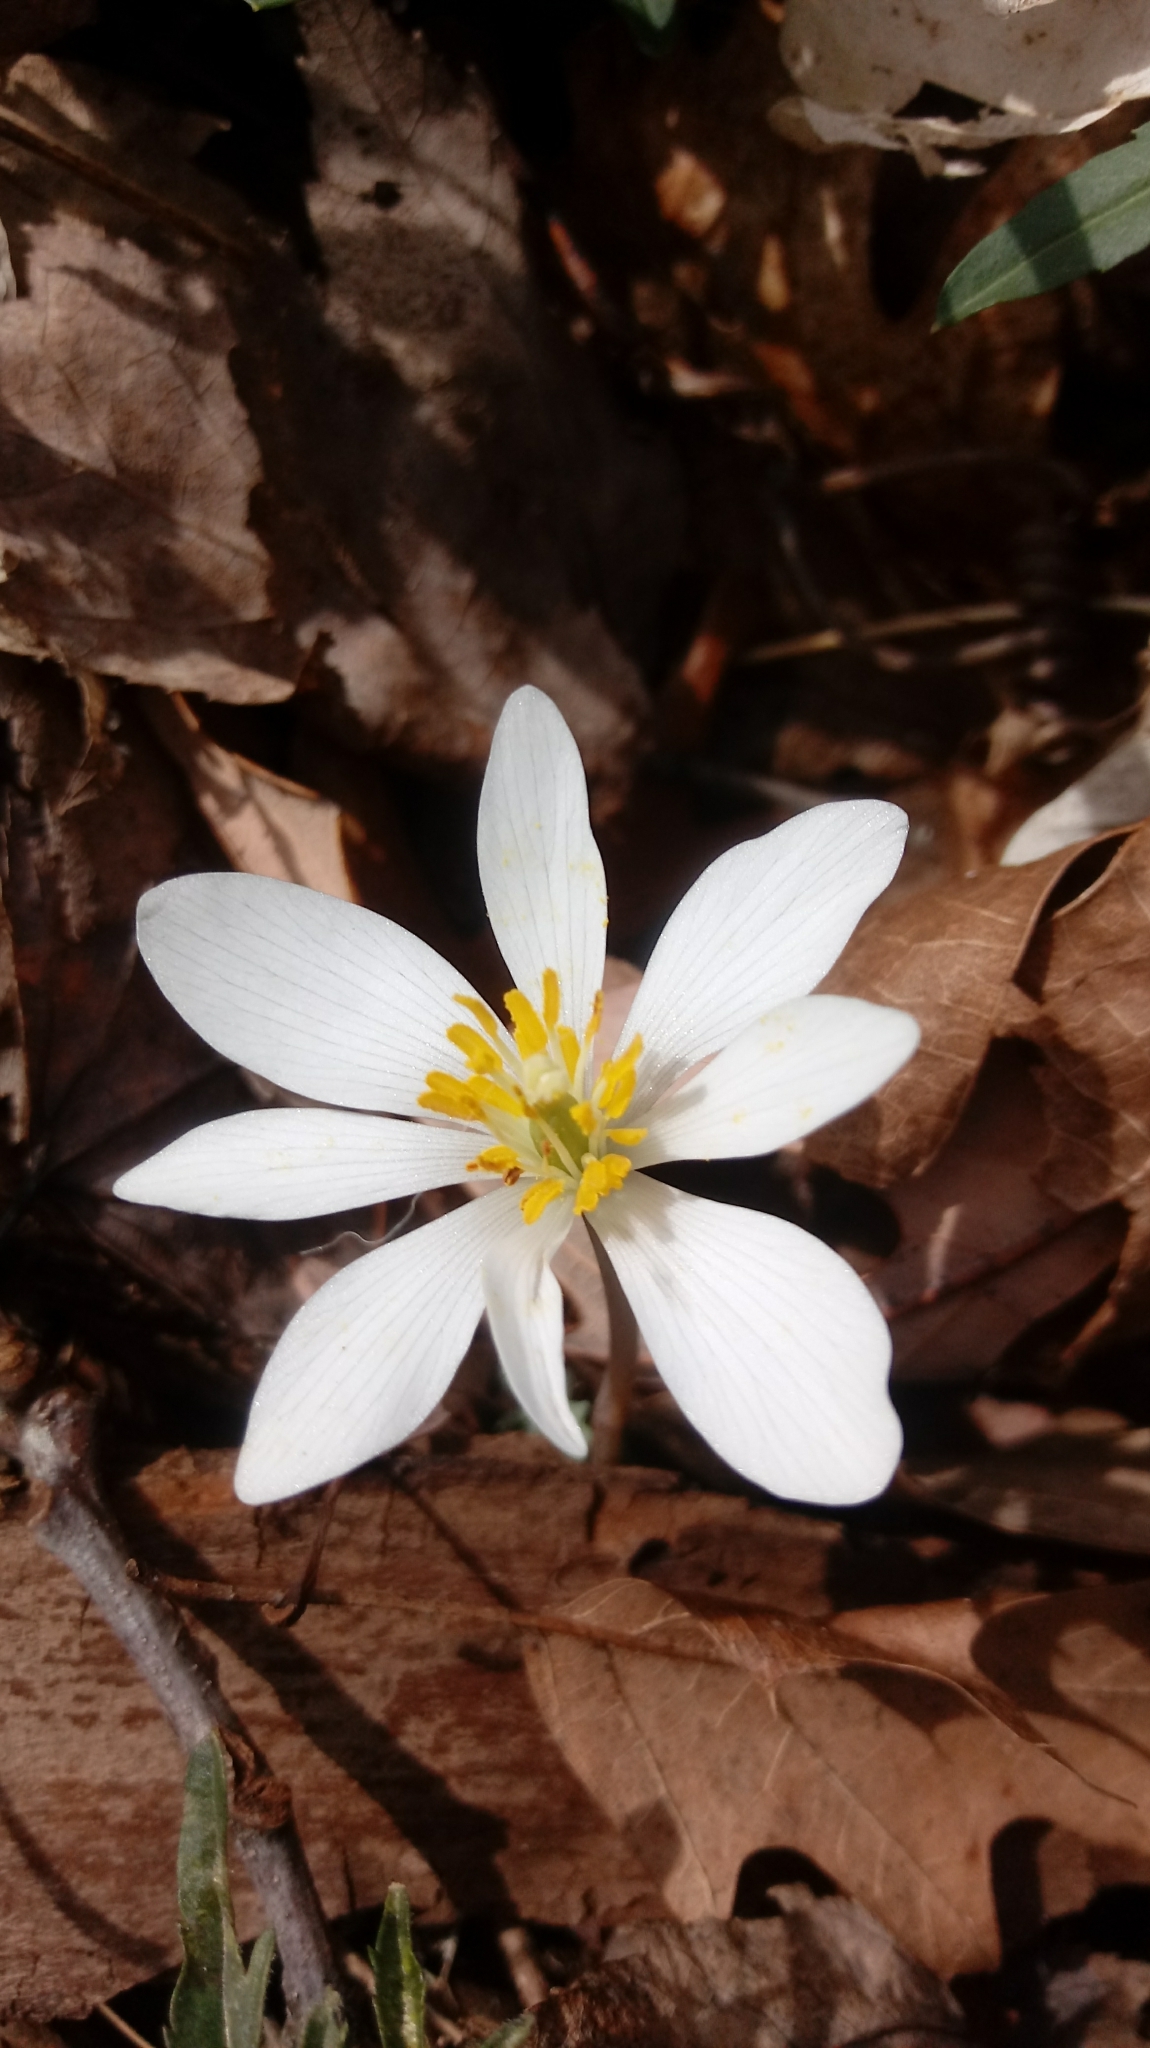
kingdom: Plantae
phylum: Tracheophyta
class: Magnoliopsida
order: Ranunculales
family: Papaveraceae
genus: Sanguinaria
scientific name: Sanguinaria canadensis
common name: Bloodroot
